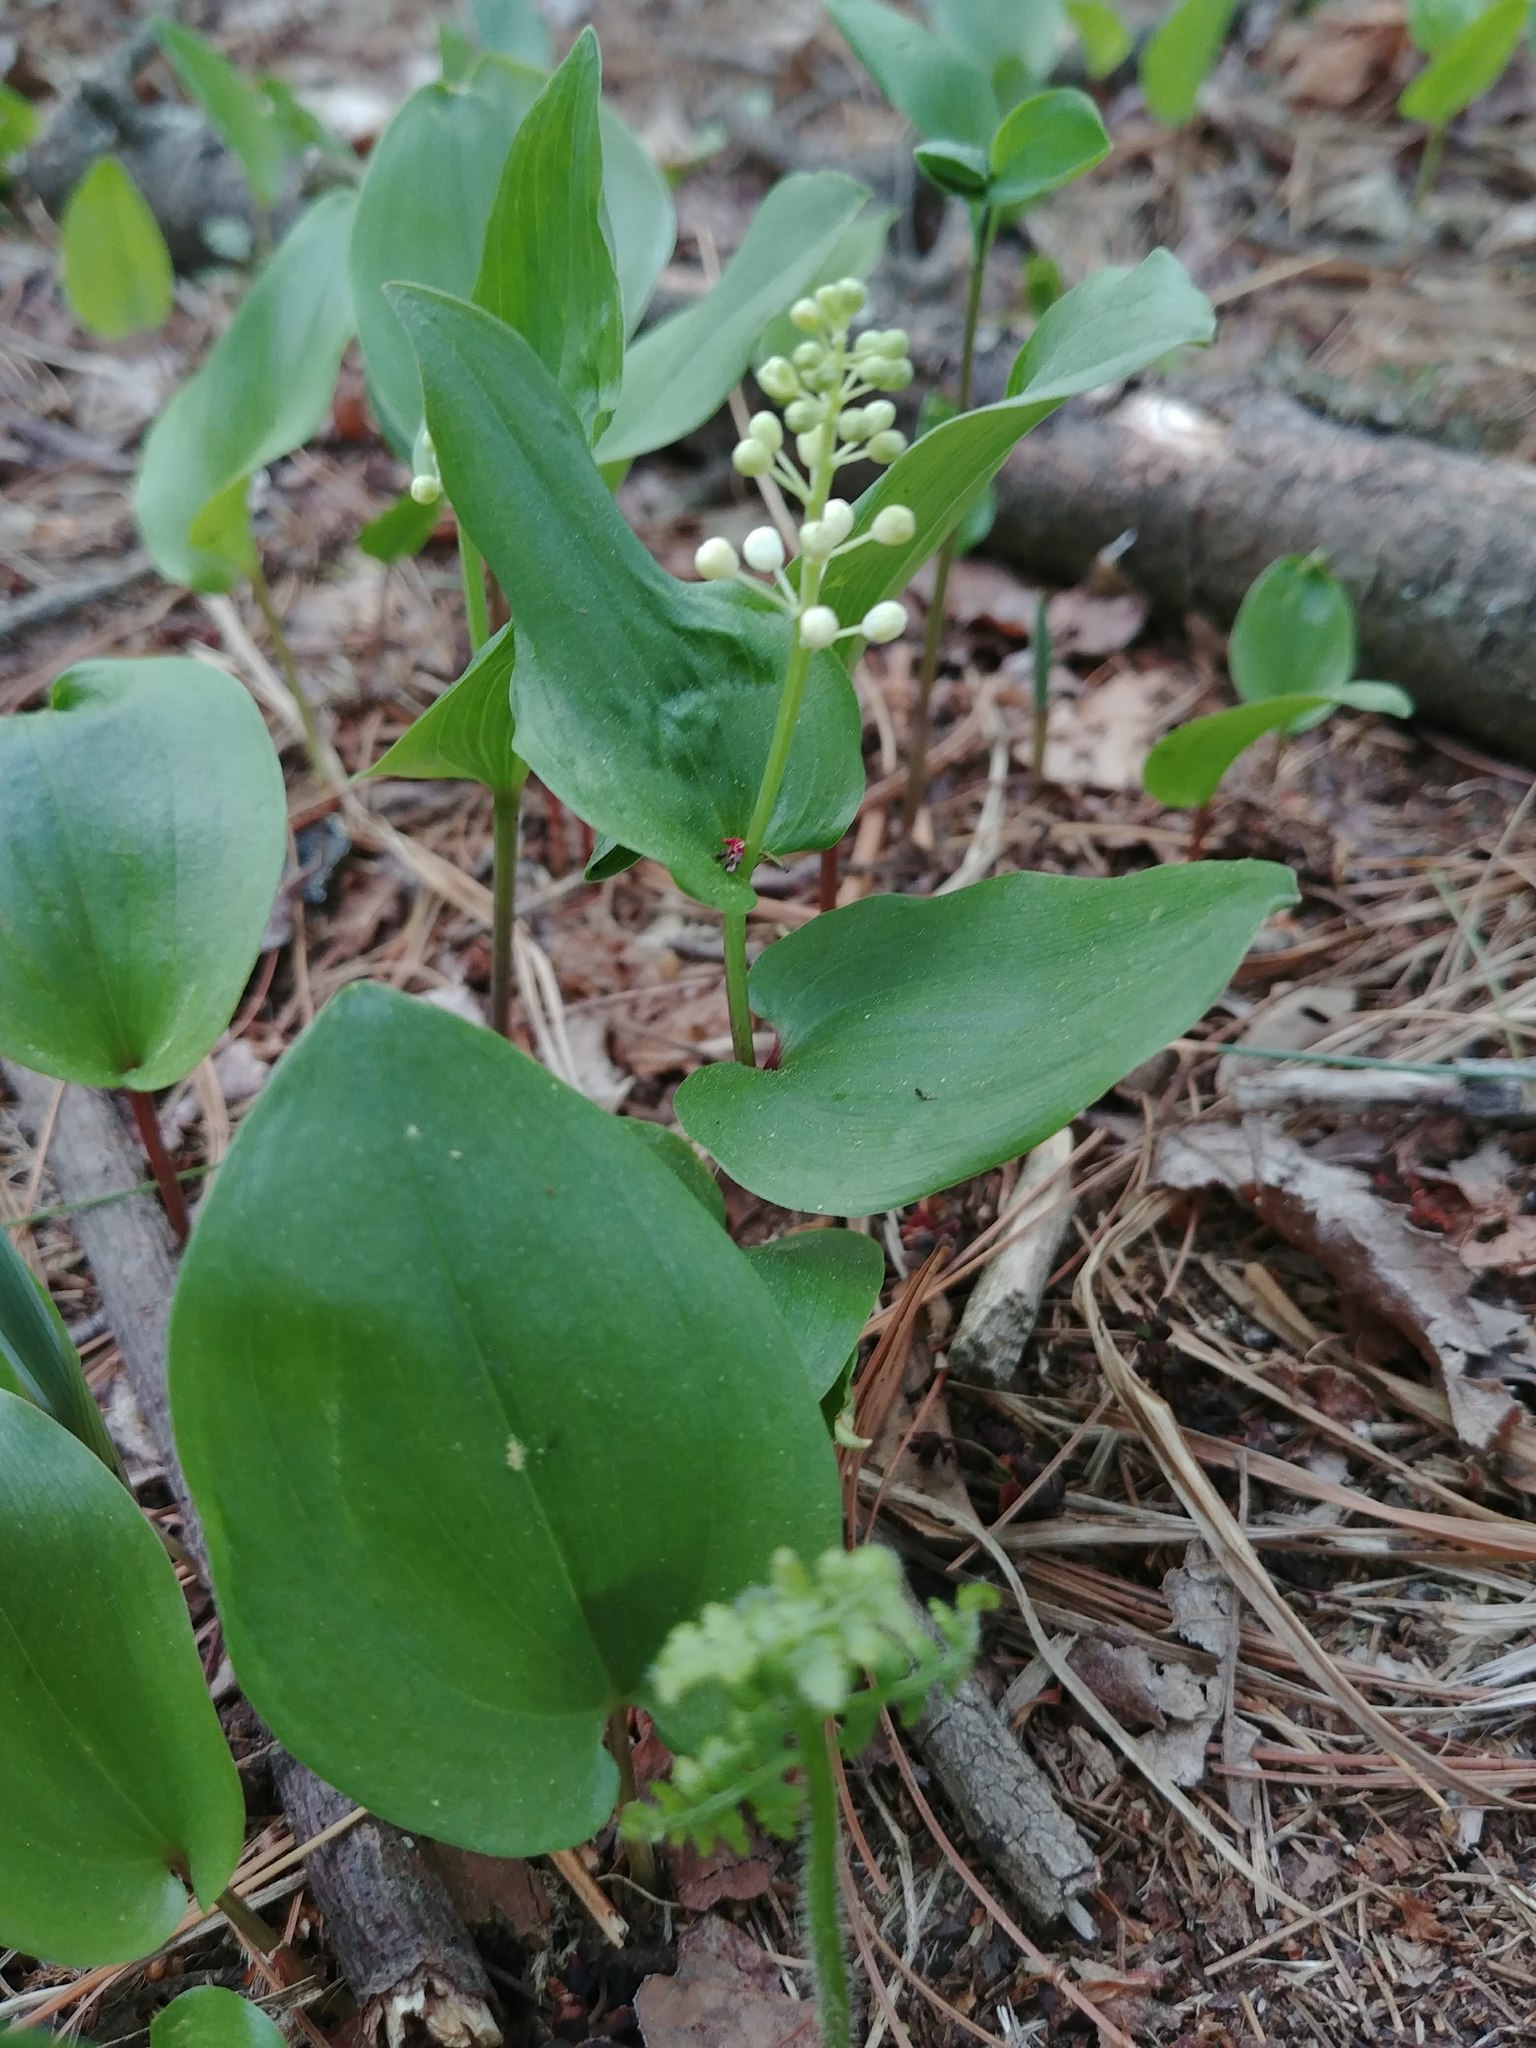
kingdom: Plantae
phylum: Tracheophyta
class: Liliopsida
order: Asparagales
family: Asparagaceae
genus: Maianthemum
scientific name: Maianthemum canadense
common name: False lily-of-the-valley
